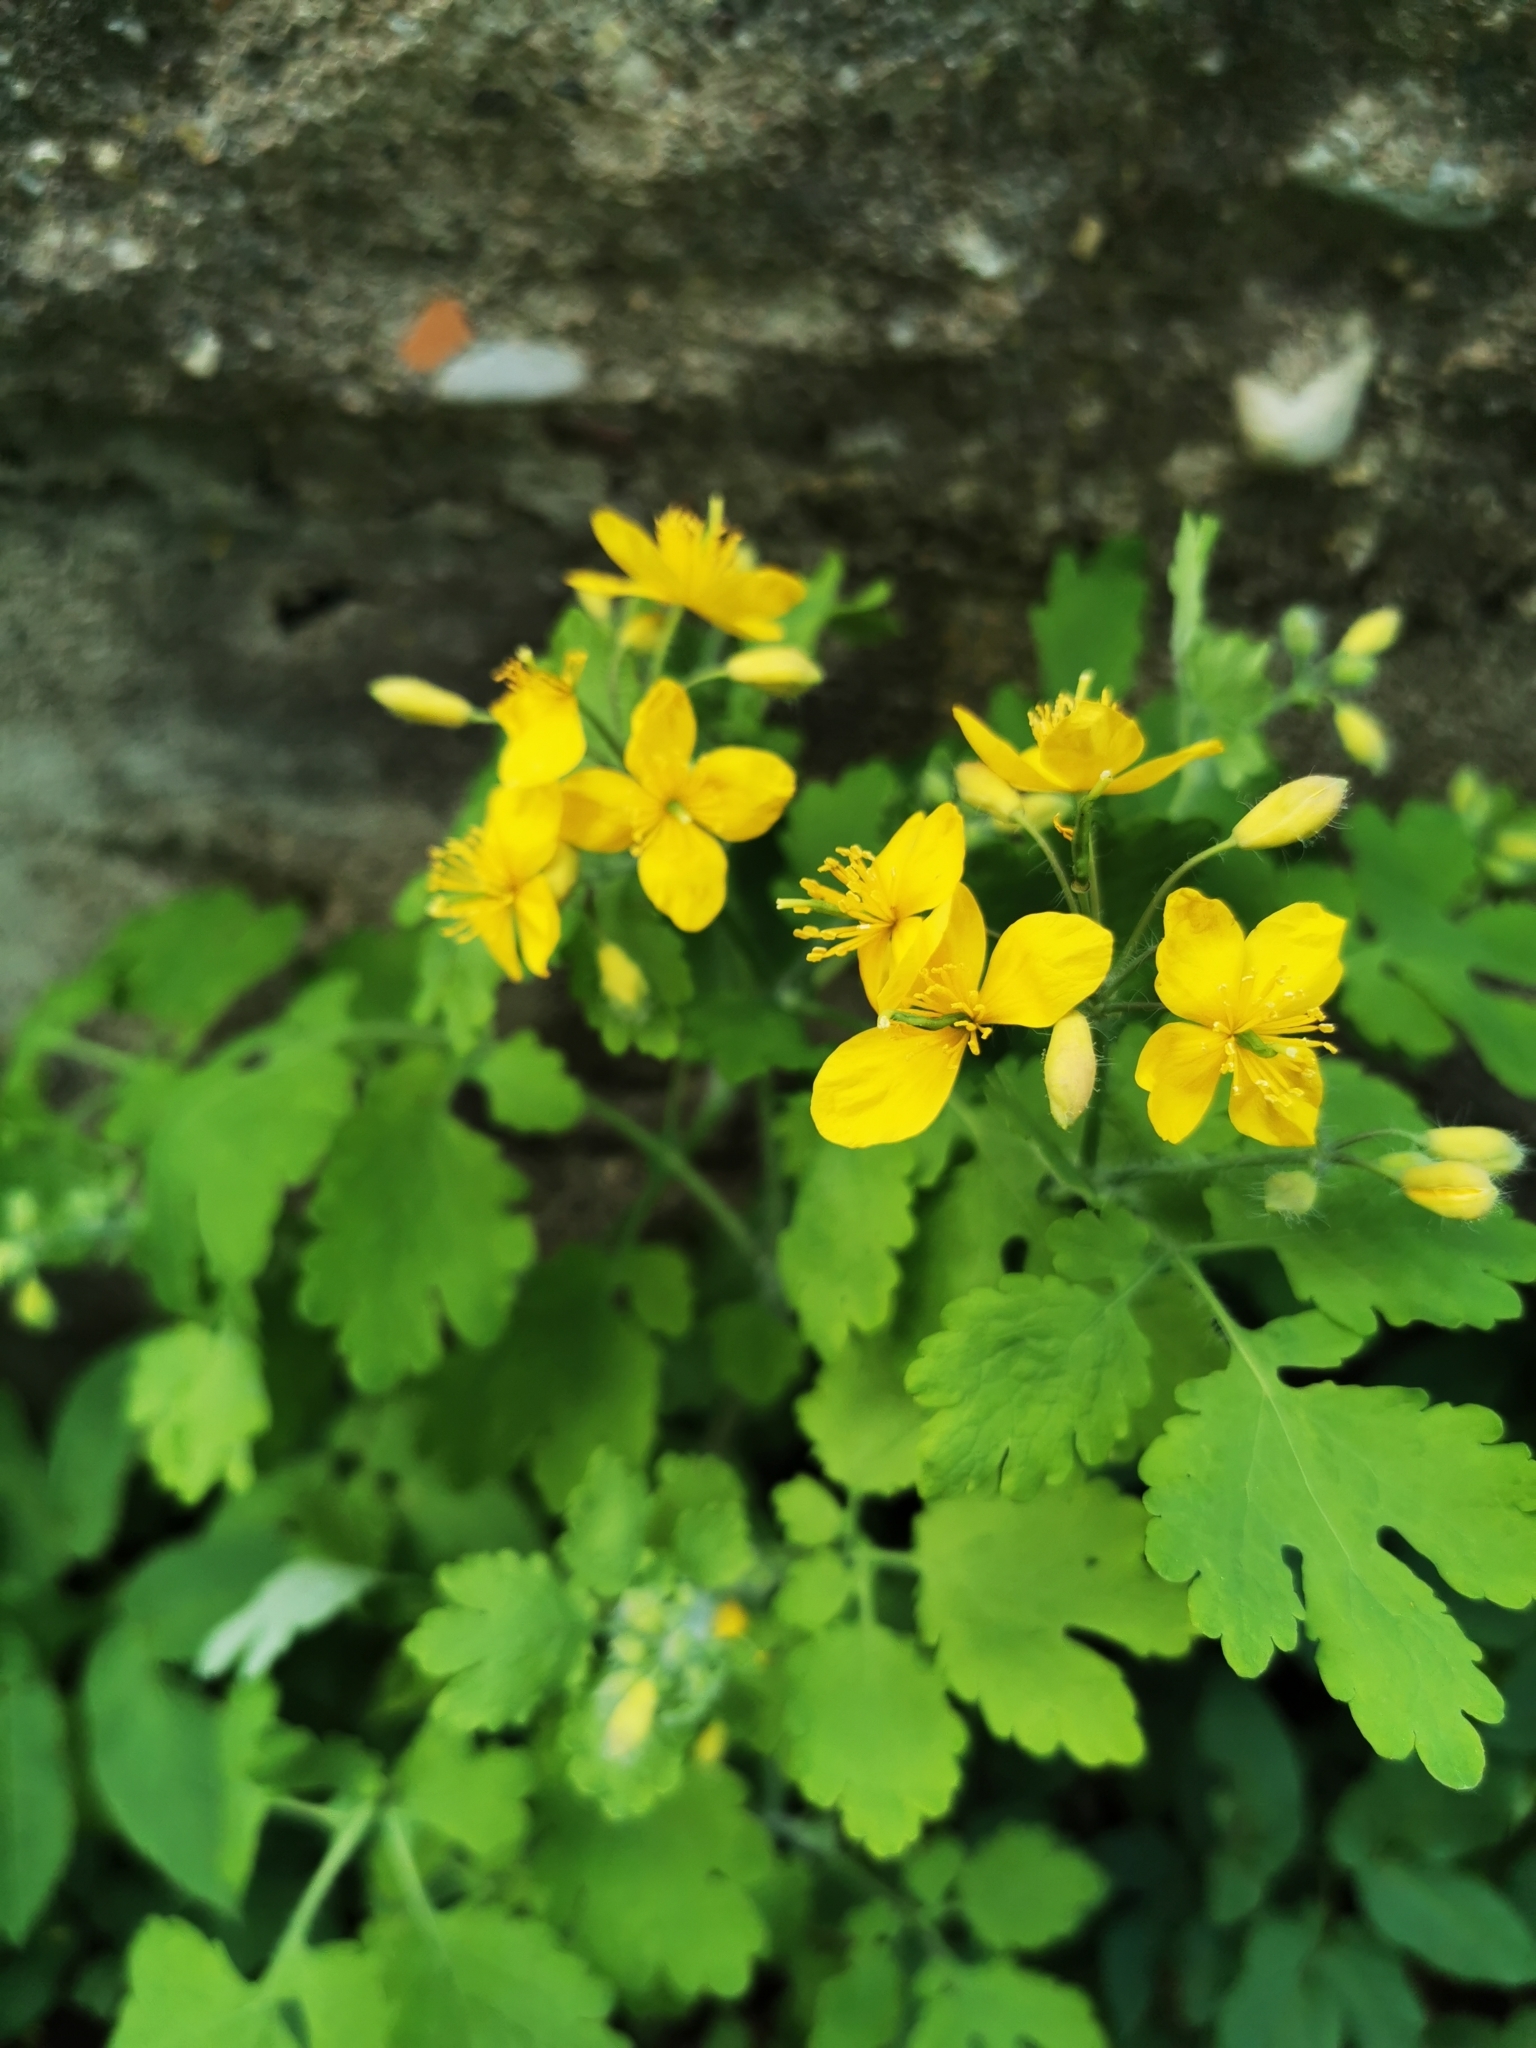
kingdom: Plantae
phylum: Tracheophyta
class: Magnoliopsida
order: Ranunculales
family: Papaveraceae
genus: Chelidonium
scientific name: Chelidonium majus
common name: Greater celandine
